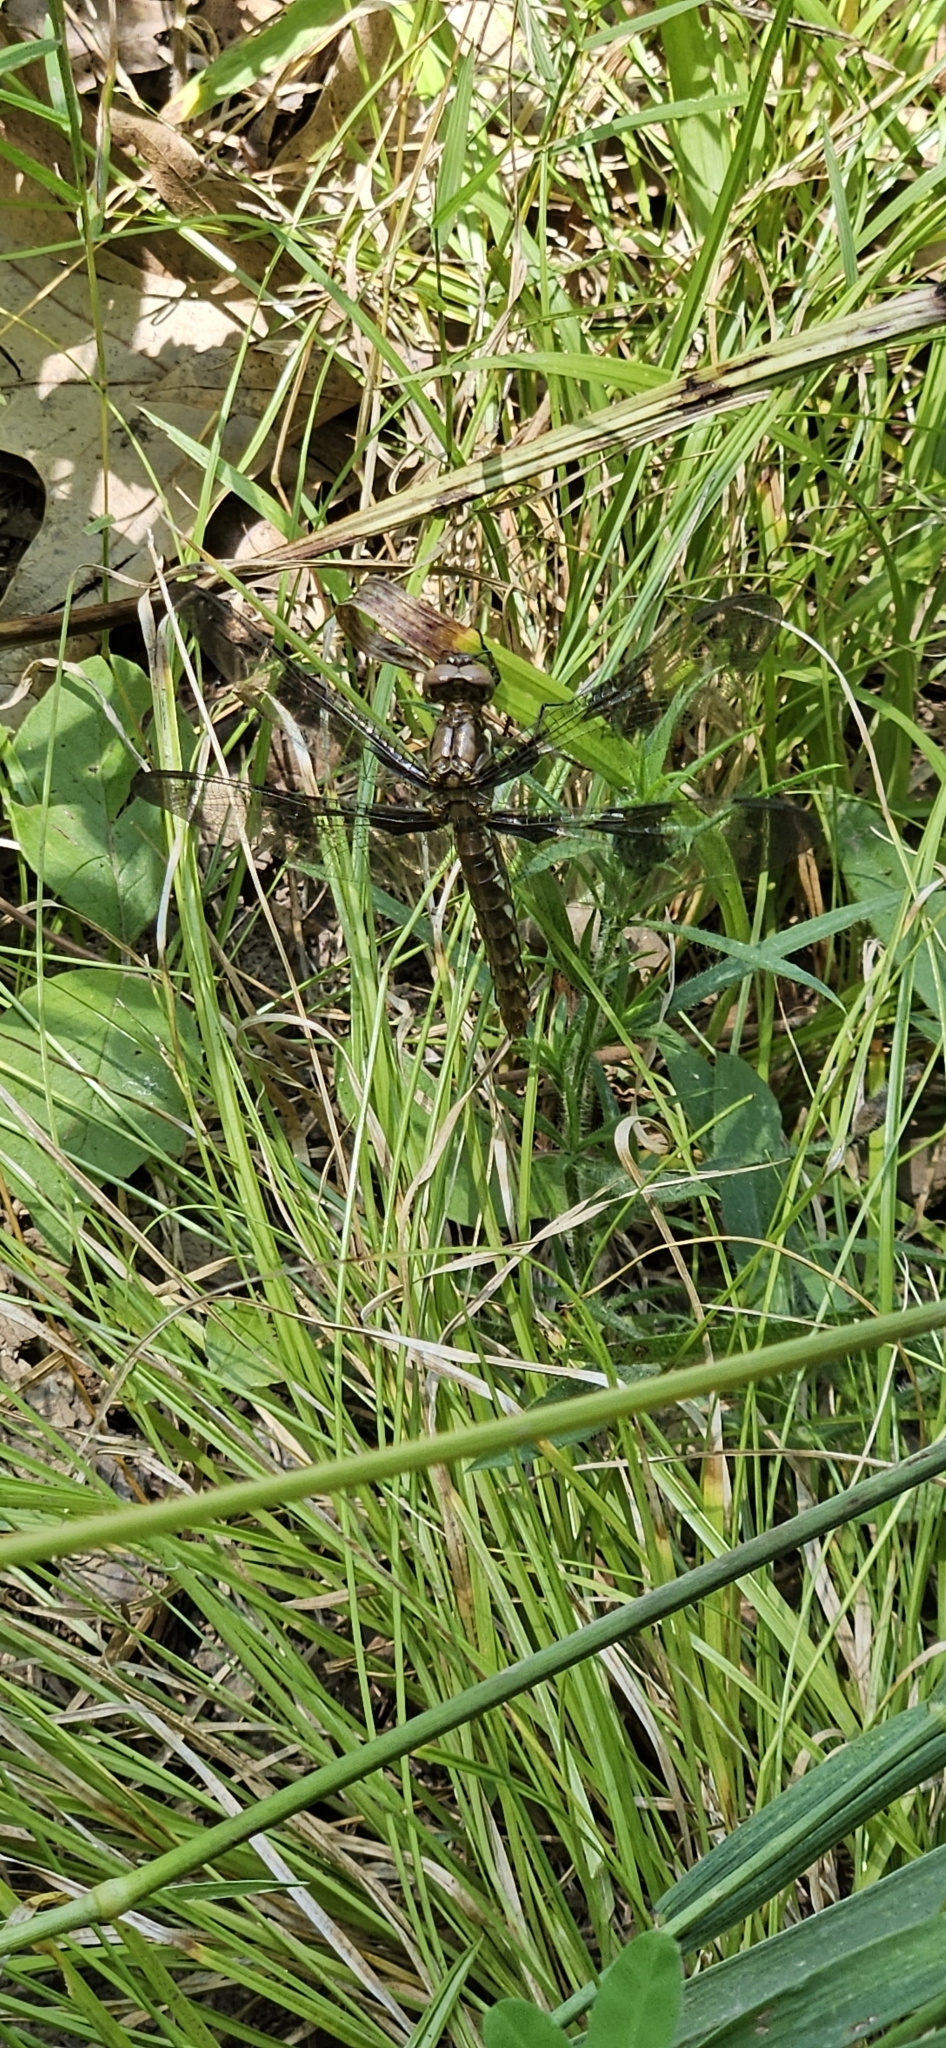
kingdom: Animalia
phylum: Arthropoda
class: Insecta
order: Odonata
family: Libellulidae
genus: Plathemis
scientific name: Plathemis lydia
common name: Common whitetail
